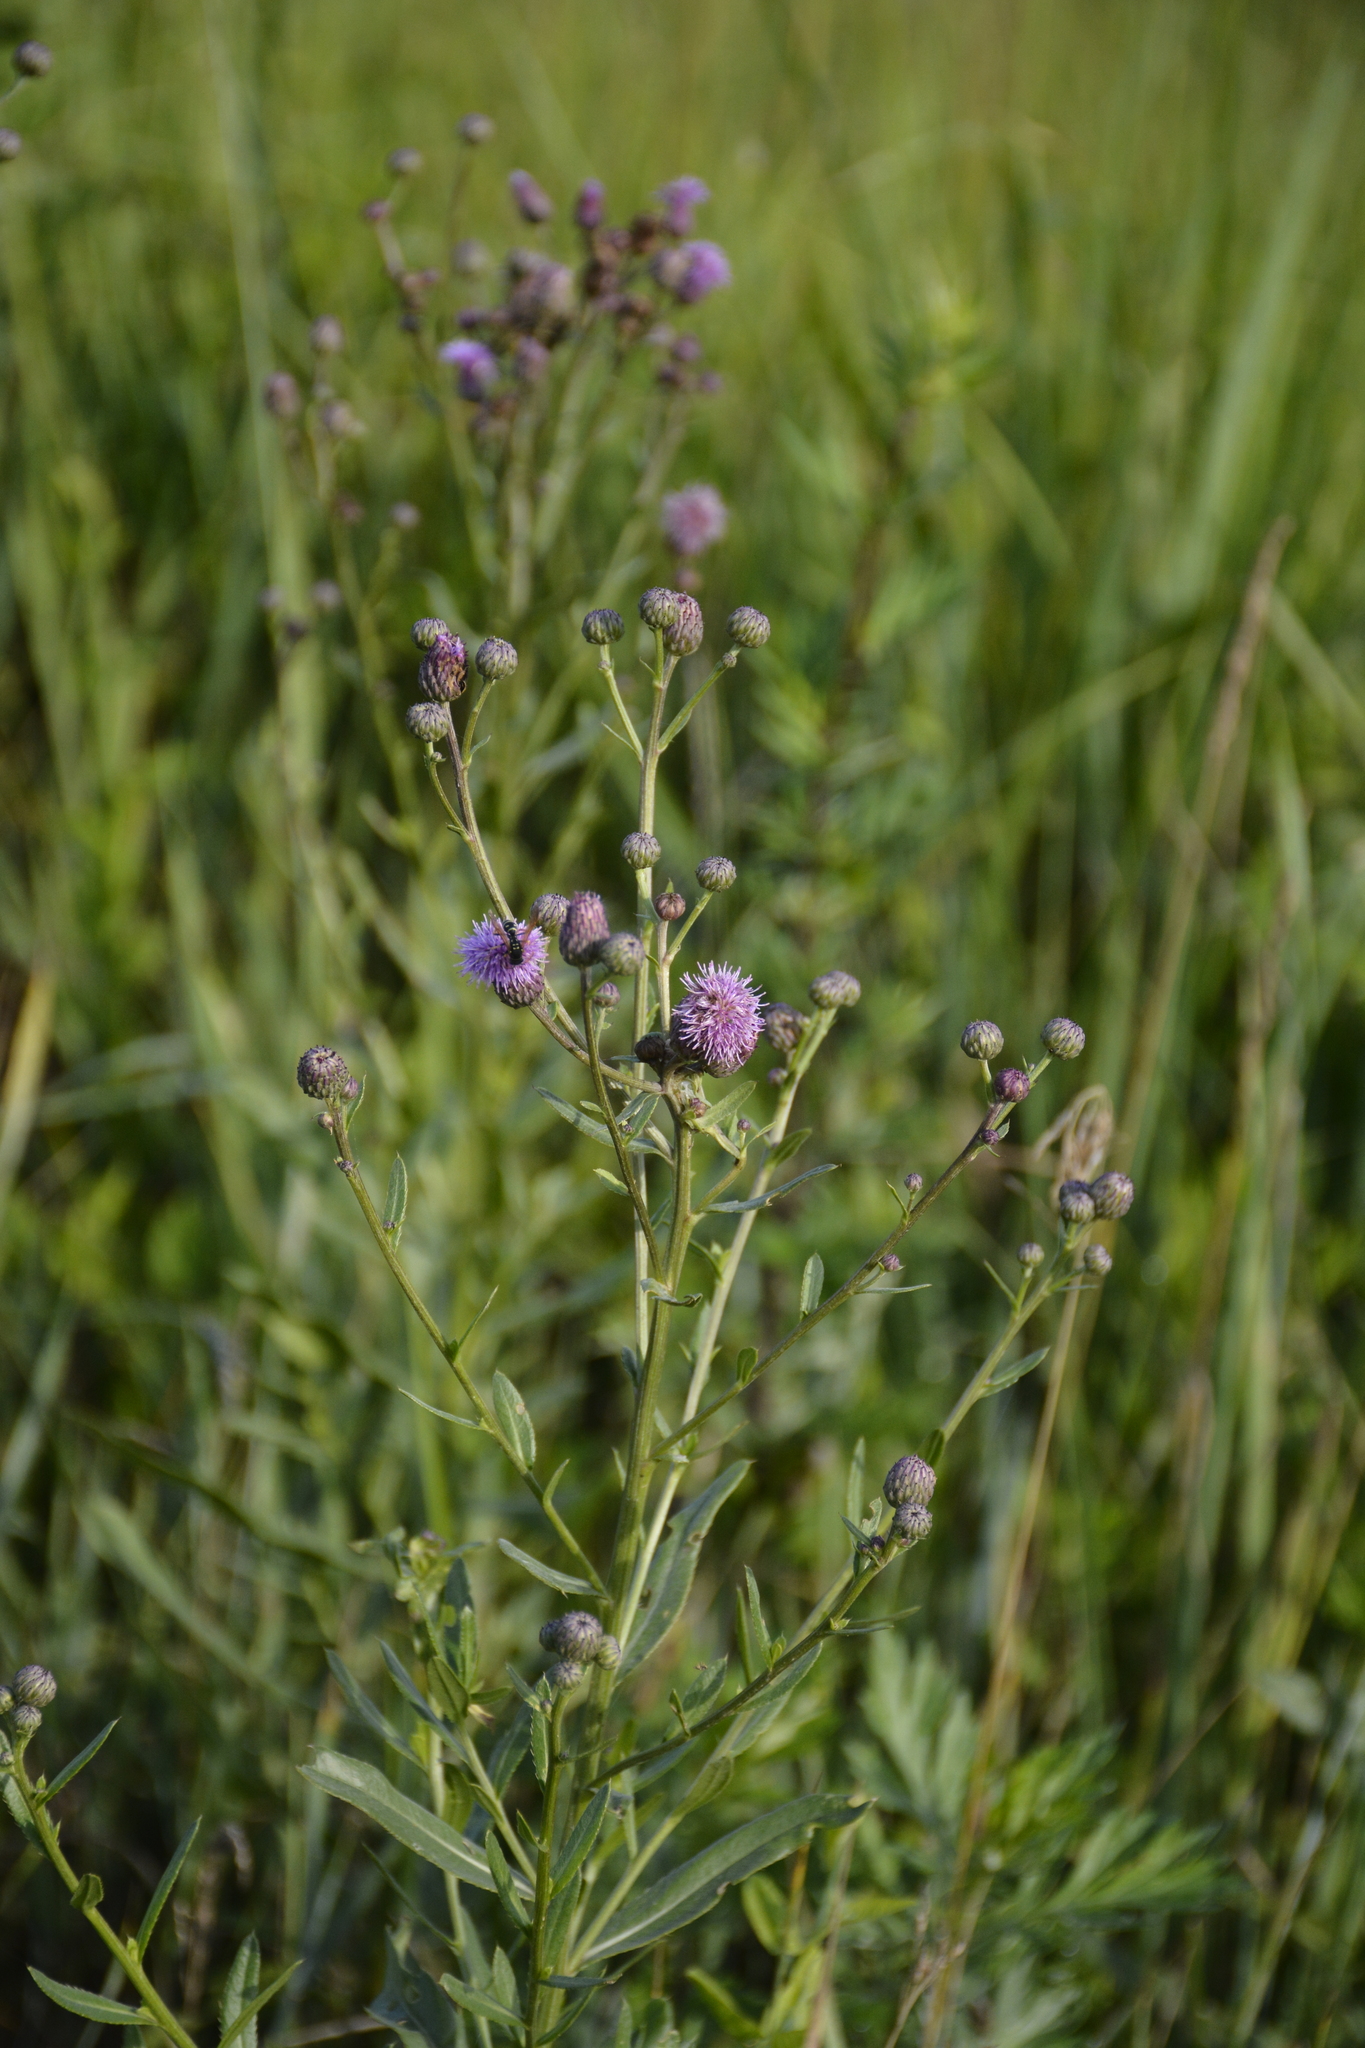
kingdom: Plantae
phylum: Tracheophyta
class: Magnoliopsida
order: Asterales
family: Asteraceae
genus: Cirsium
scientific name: Cirsium arvense
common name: Creeping thistle
